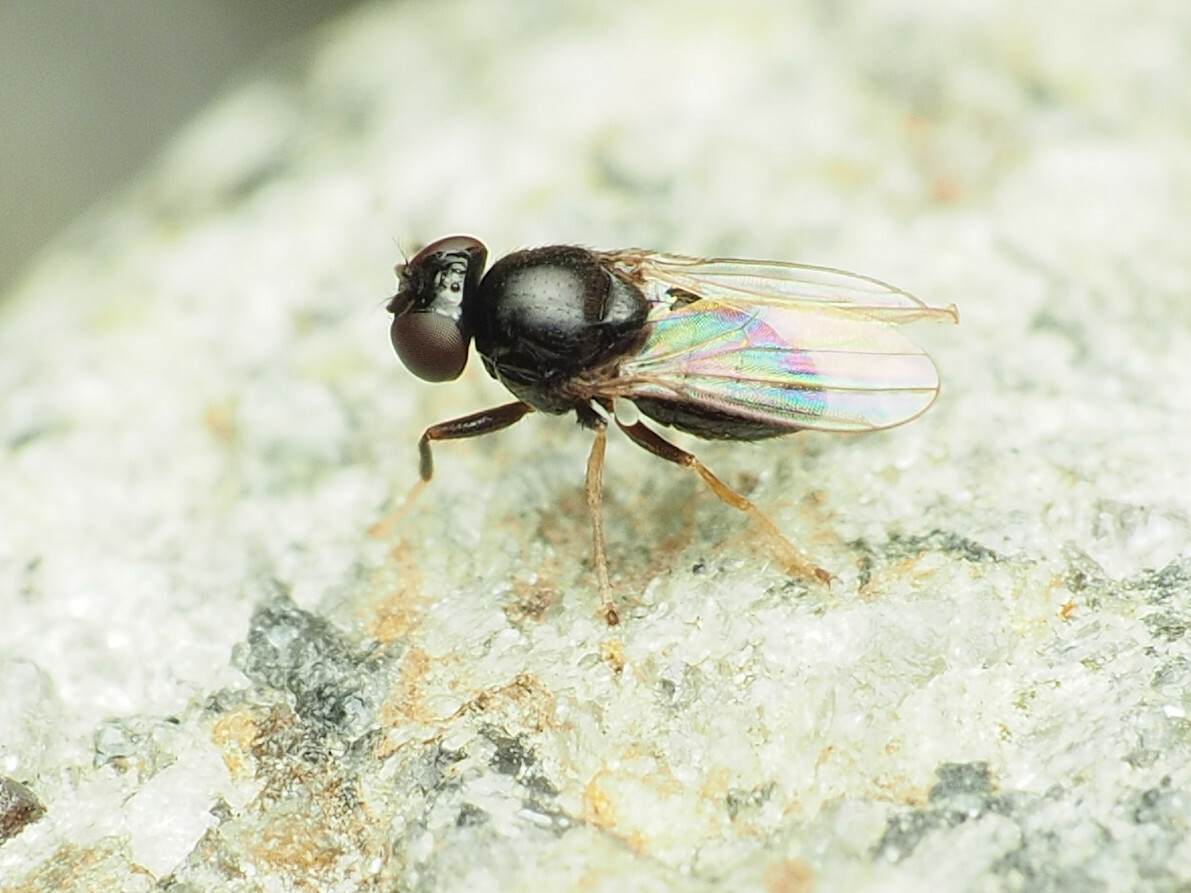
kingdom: Animalia
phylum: Arthropoda
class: Insecta
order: Diptera
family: Ephydridae
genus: Athyroglossa
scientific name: Athyroglossa glaphyropus
